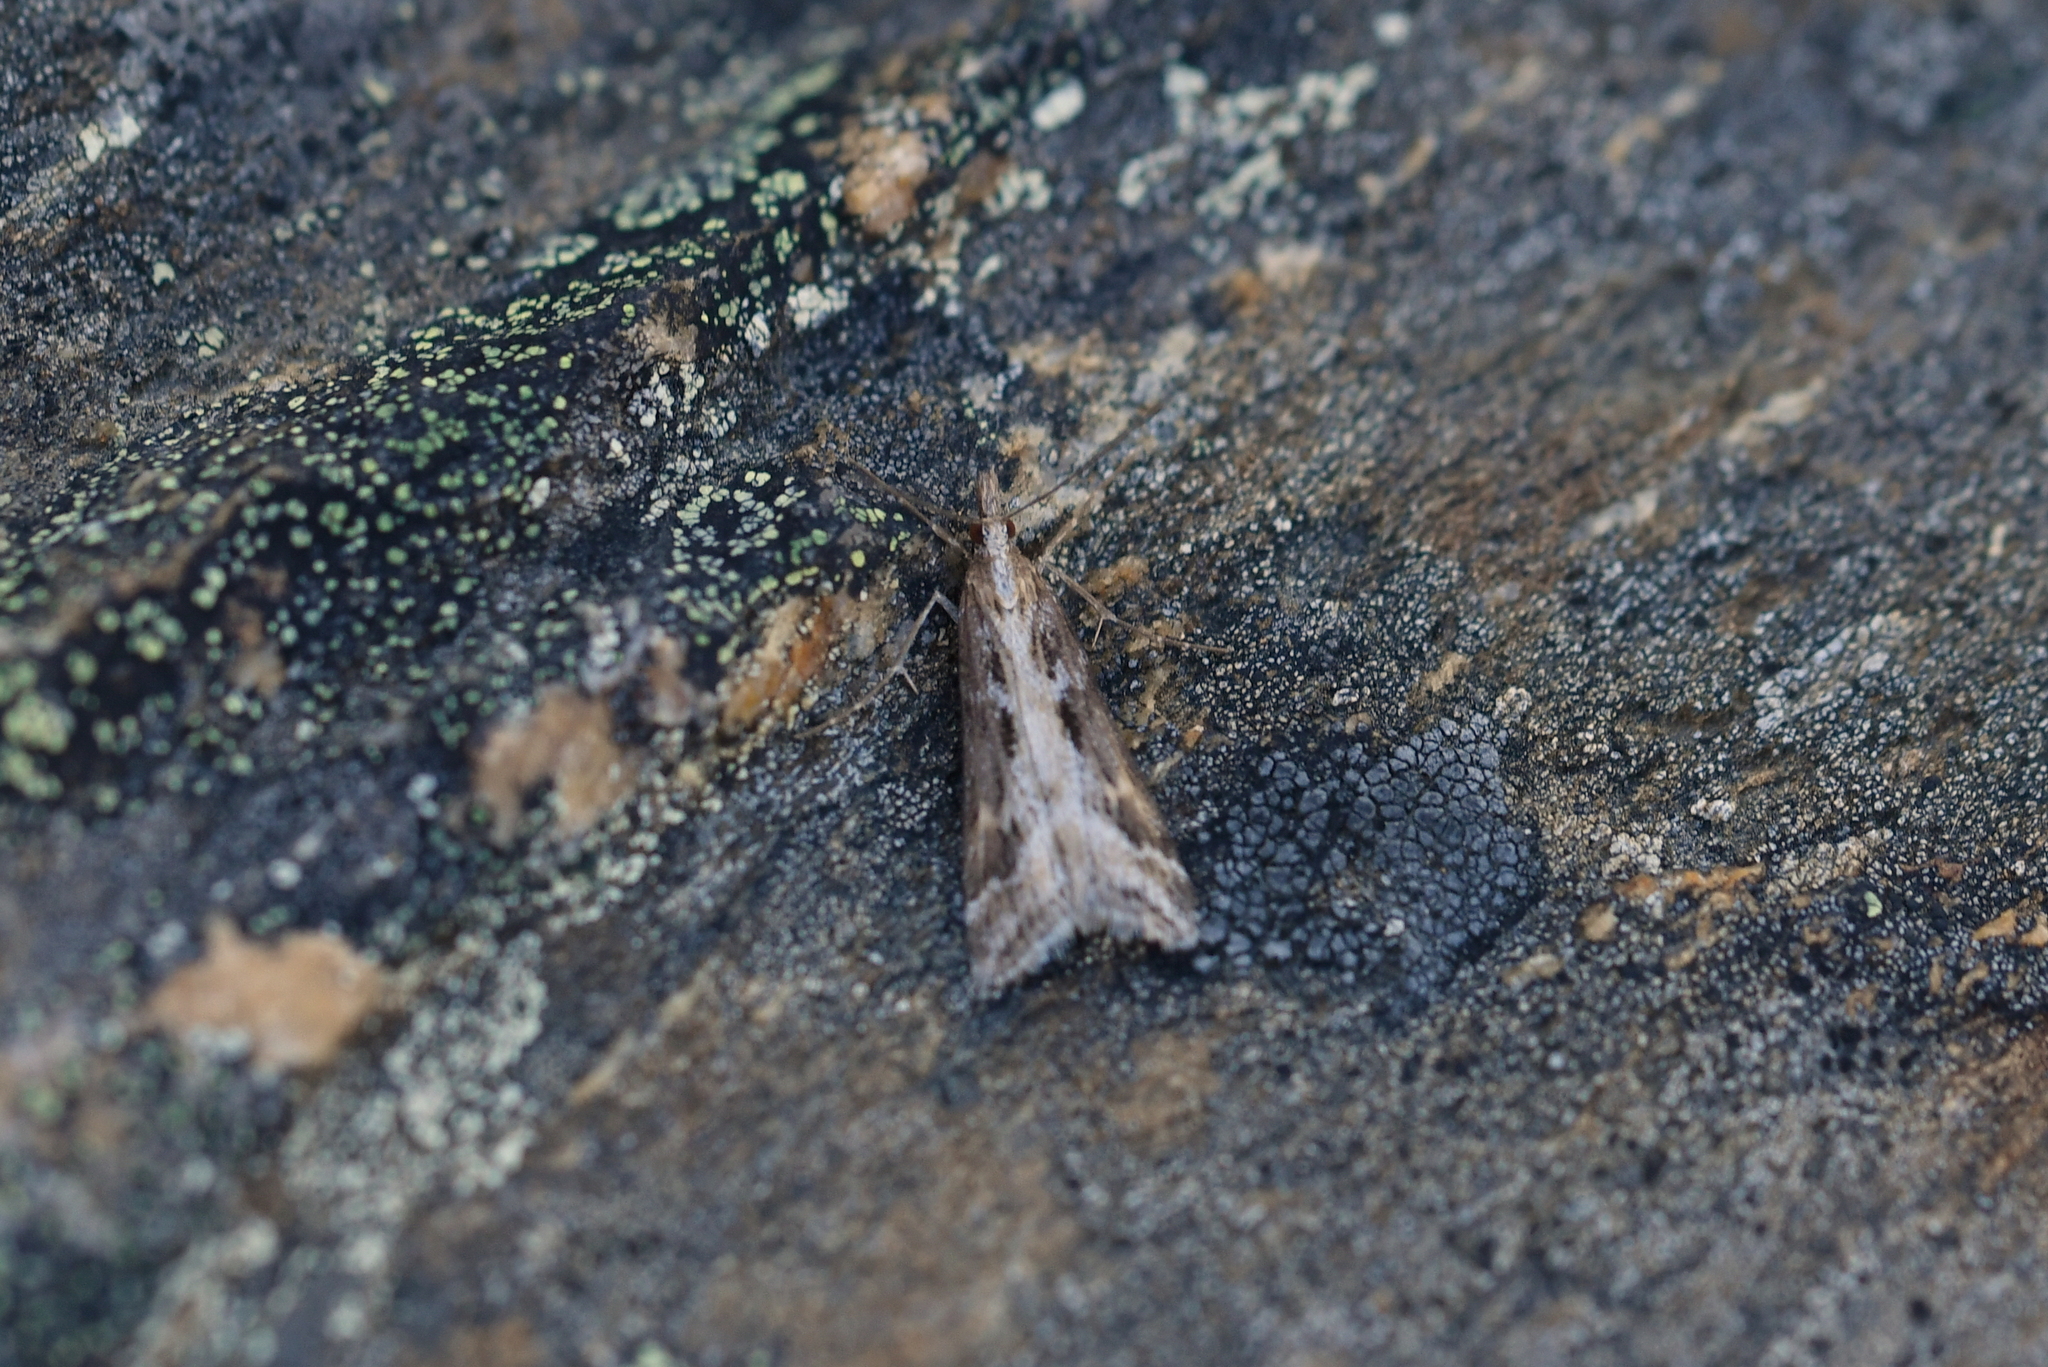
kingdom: Animalia
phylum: Arthropoda
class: Insecta
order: Lepidoptera
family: Crambidae
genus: Scoparia
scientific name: Scoparia exilis
